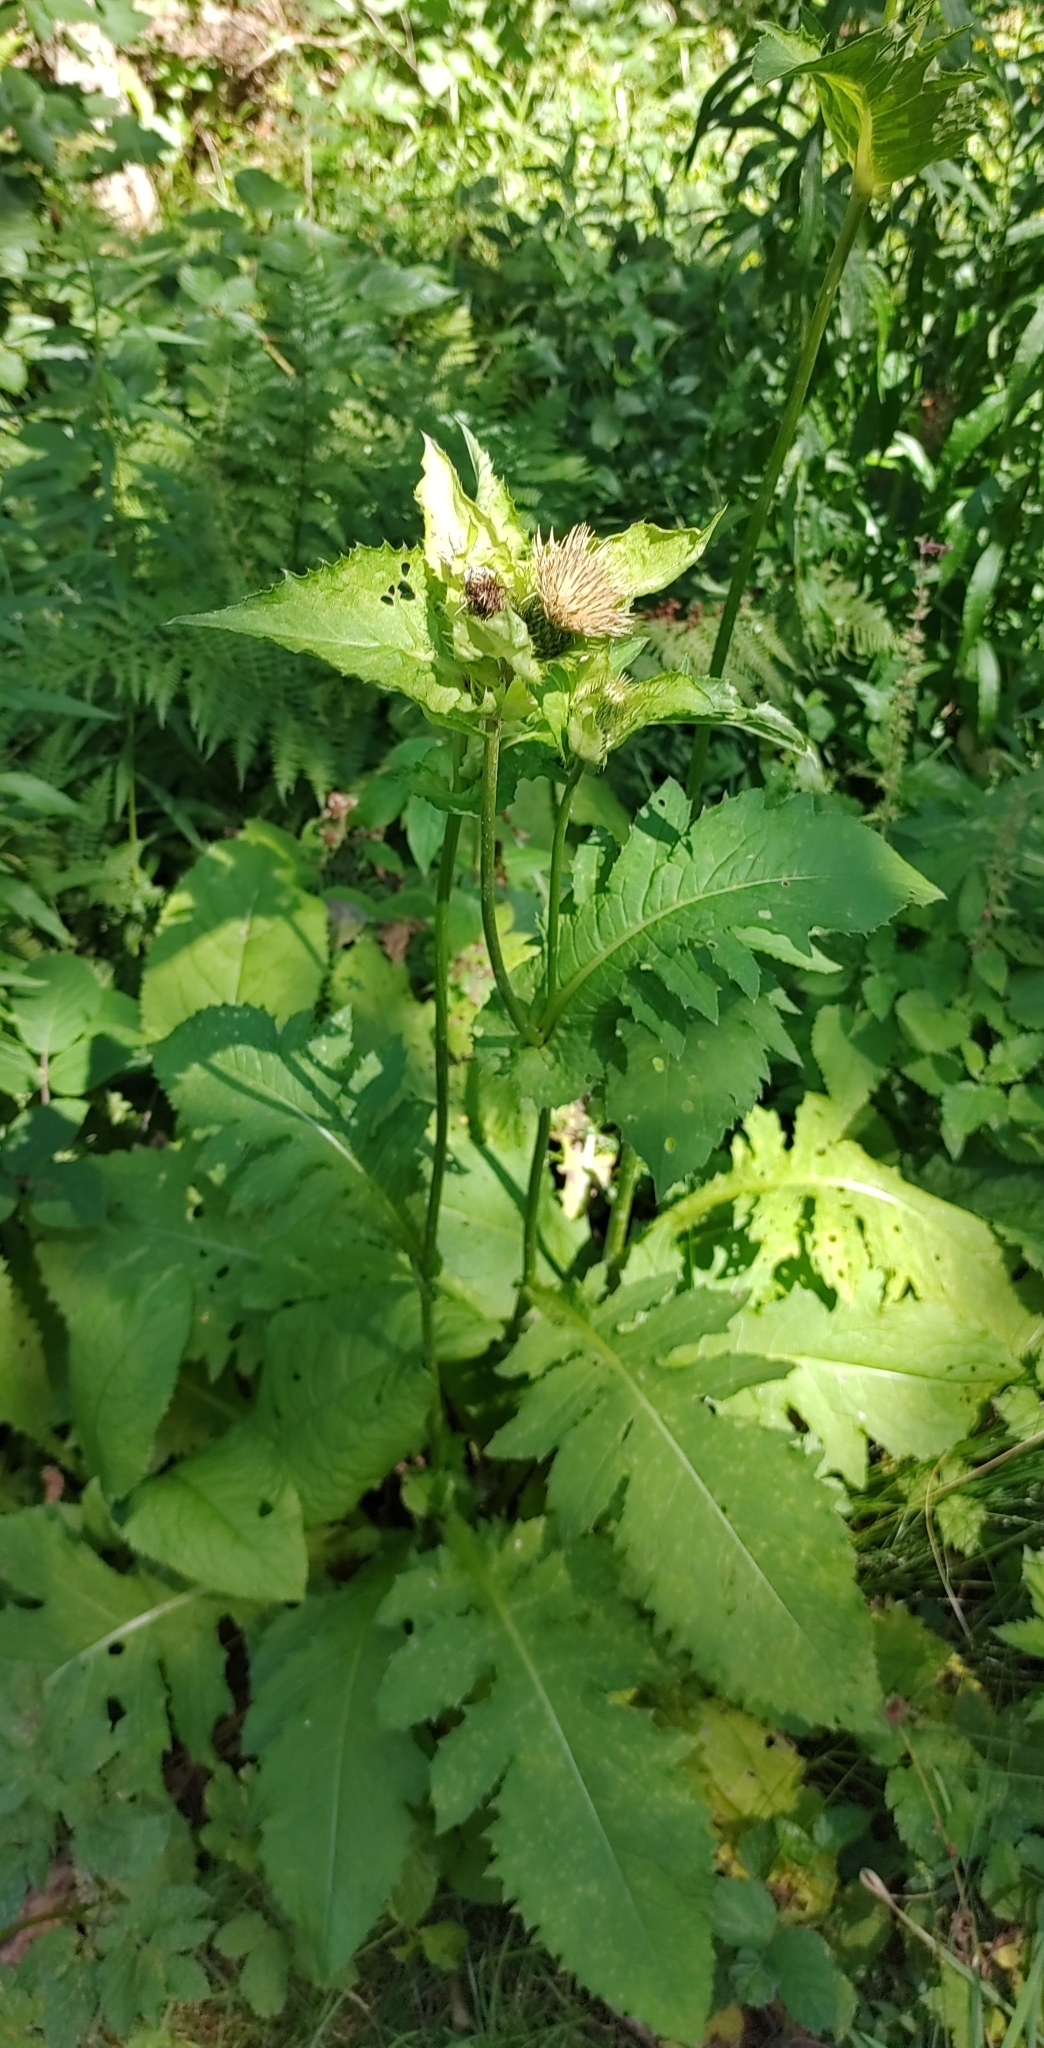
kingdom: Plantae
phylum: Tracheophyta
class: Magnoliopsida
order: Asterales
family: Asteraceae
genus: Cirsium
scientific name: Cirsium oleraceum
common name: Cabbage thistle
